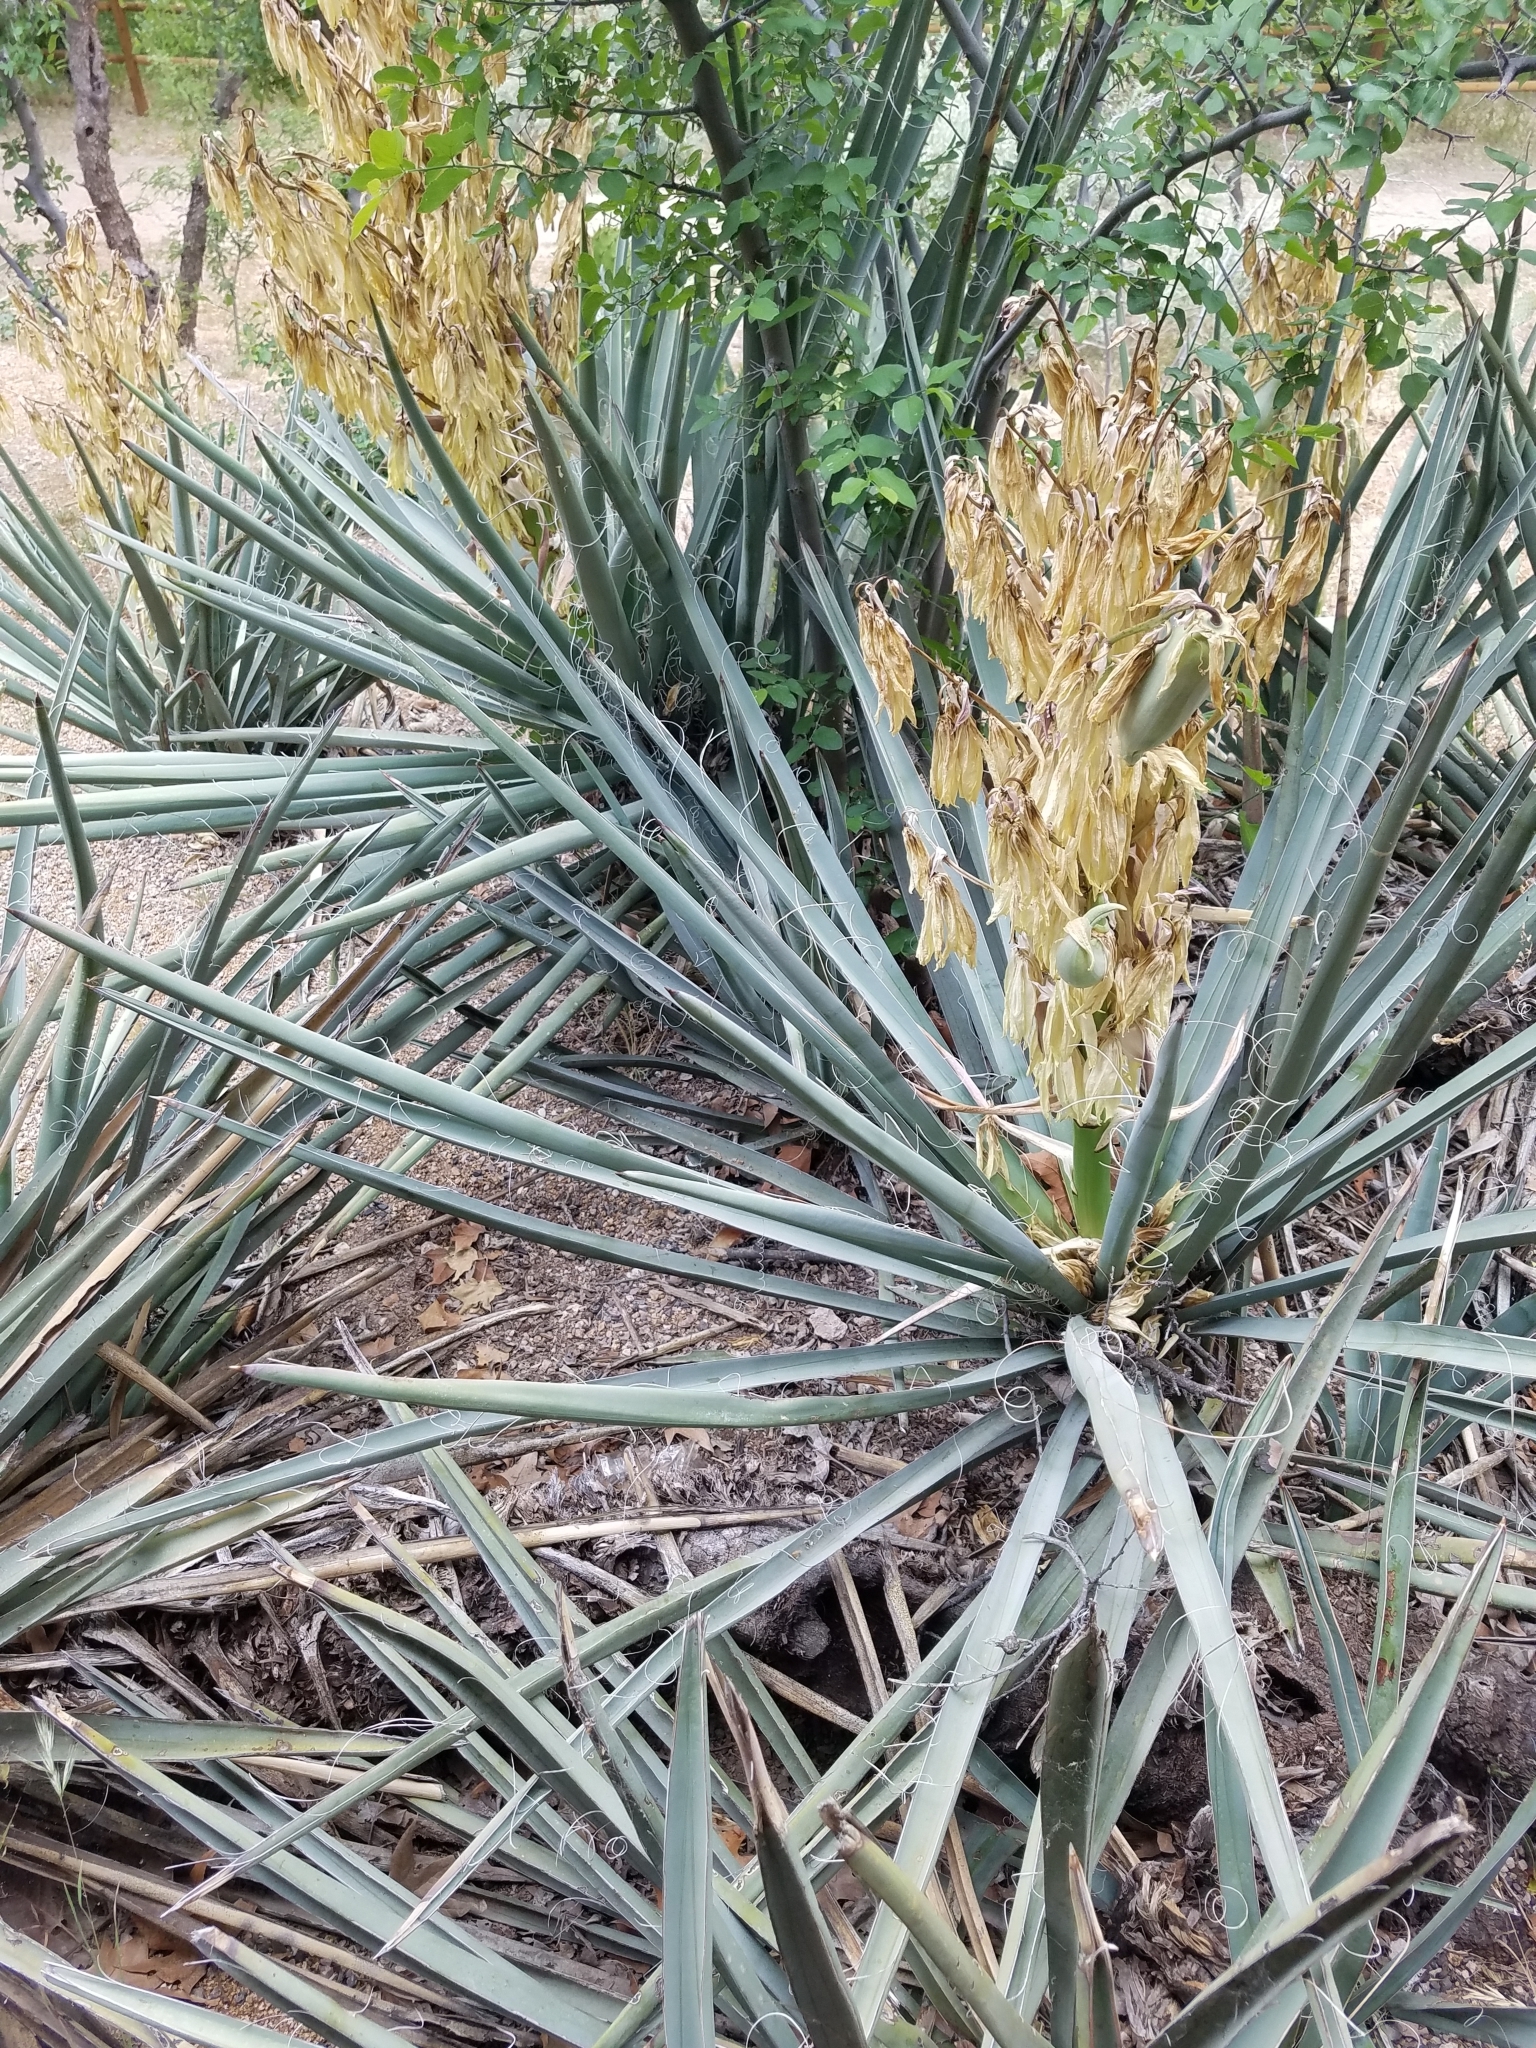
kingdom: Plantae
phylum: Tracheophyta
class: Liliopsida
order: Asparagales
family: Asparagaceae
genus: Yucca
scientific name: Yucca baccata
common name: Banana yucca
